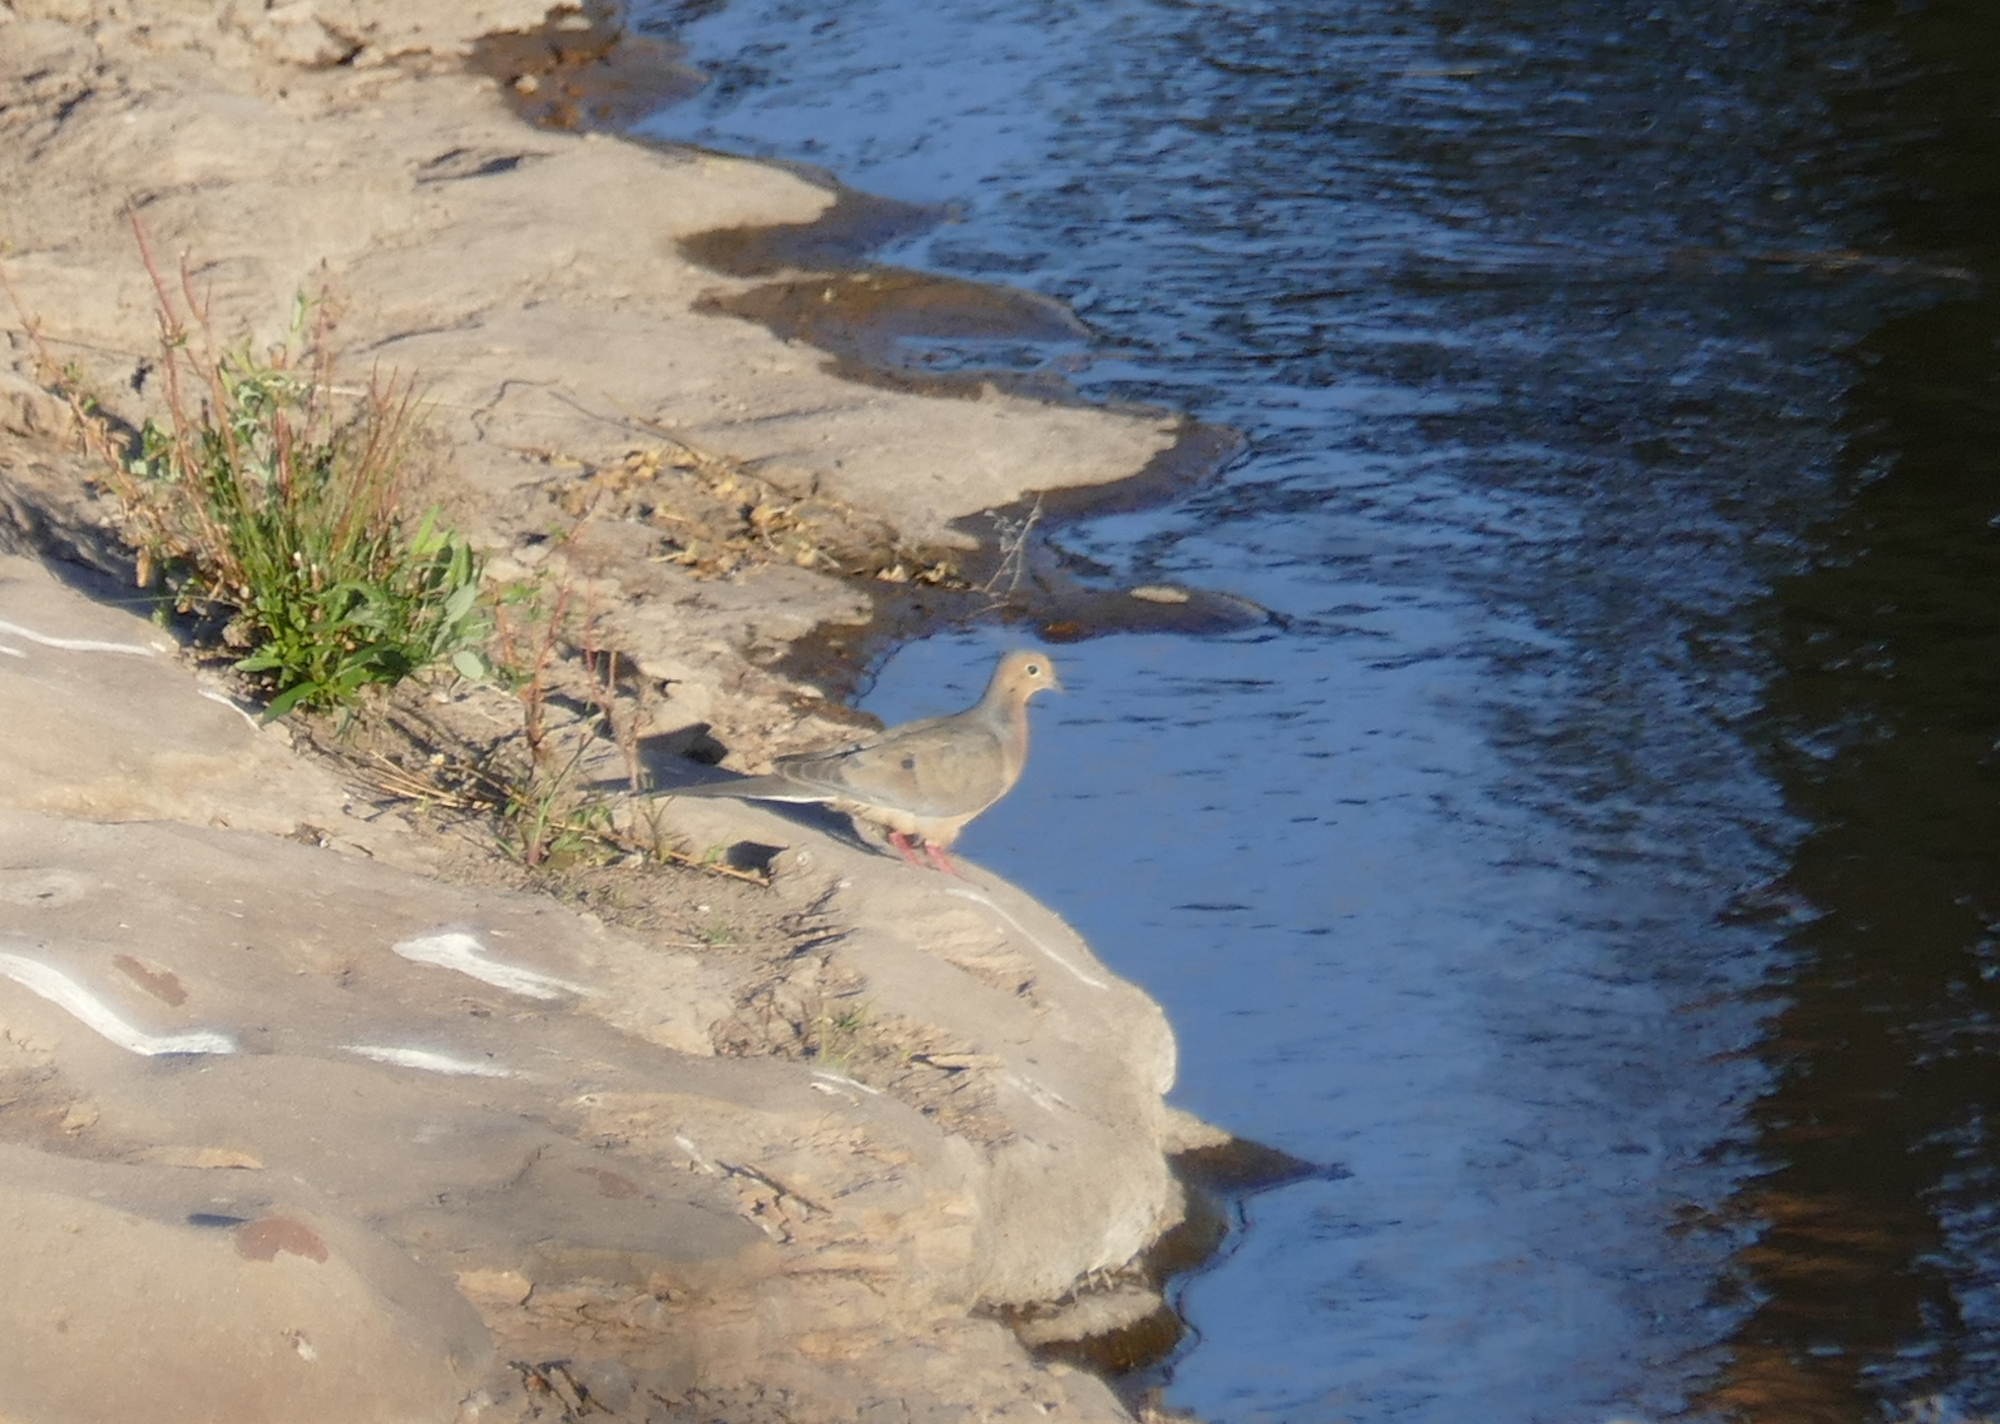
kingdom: Animalia
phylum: Chordata
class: Aves
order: Columbiformes
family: Columbidae
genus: Zenaida
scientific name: Zenaida macroura
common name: Mourning dove
